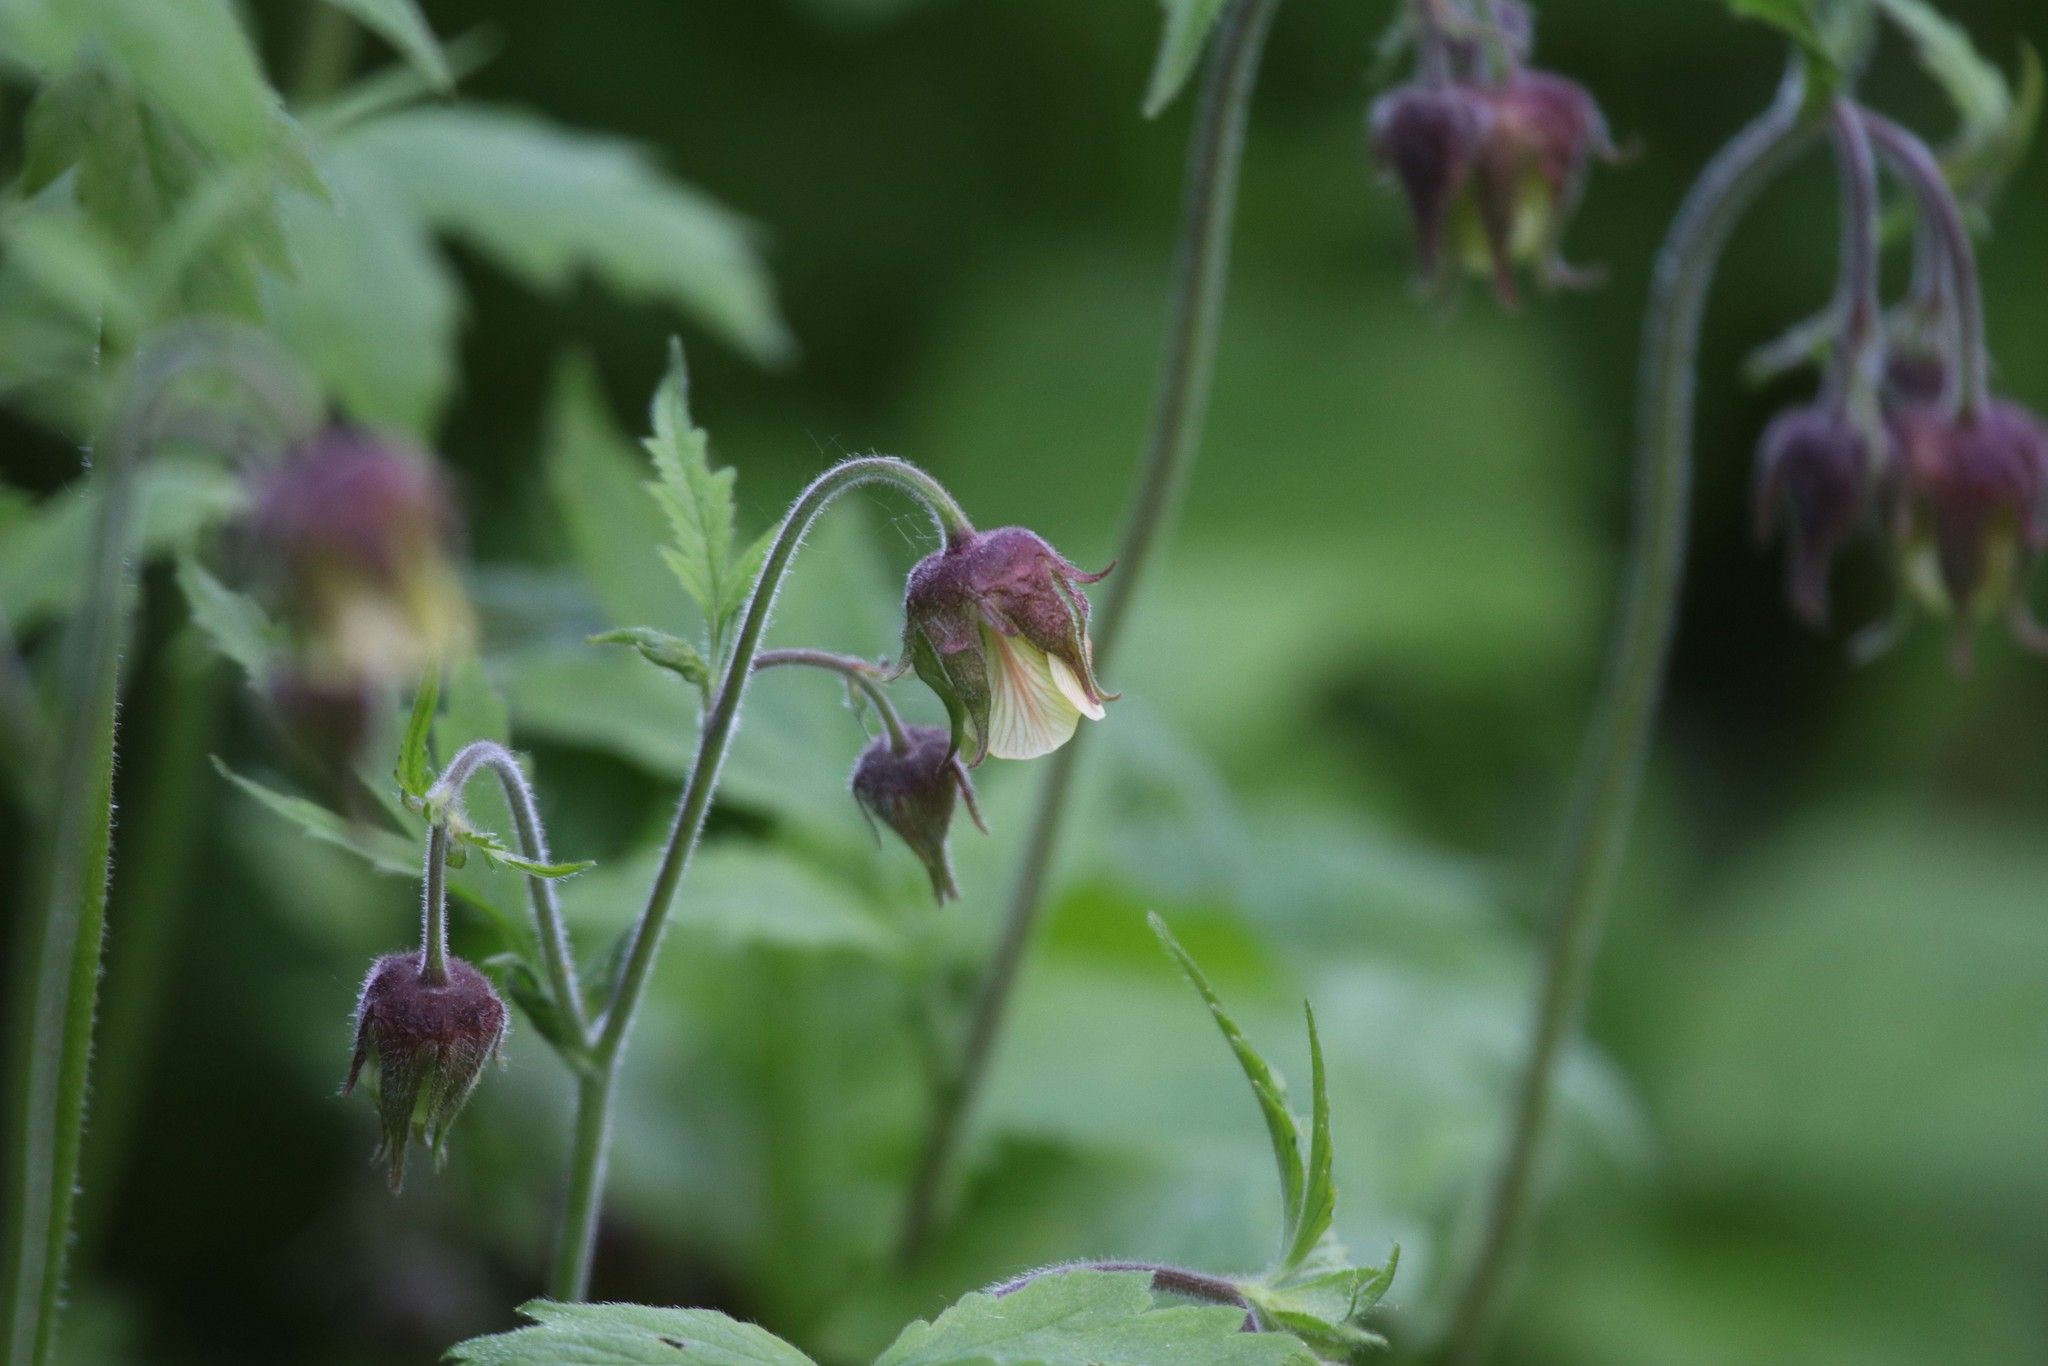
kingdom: Plantae
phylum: Tracheophyta
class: Magnoliopsida
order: Rosales
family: Rosaceae
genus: Geum
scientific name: Geum rivale
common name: Water avens
